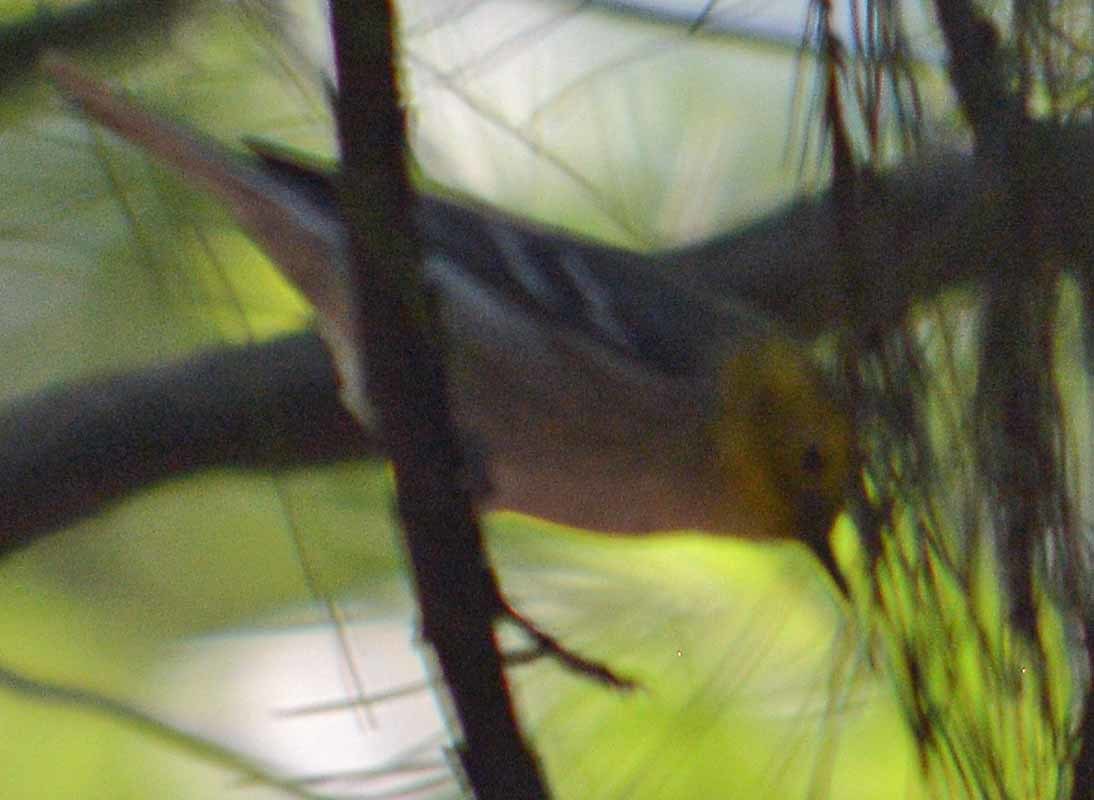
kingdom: Animalia
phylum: Chordata
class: Aves
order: Passeriformes
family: Parulidae
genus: Setophaga
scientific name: Setophaga occidentalis
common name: Hermit warbler
